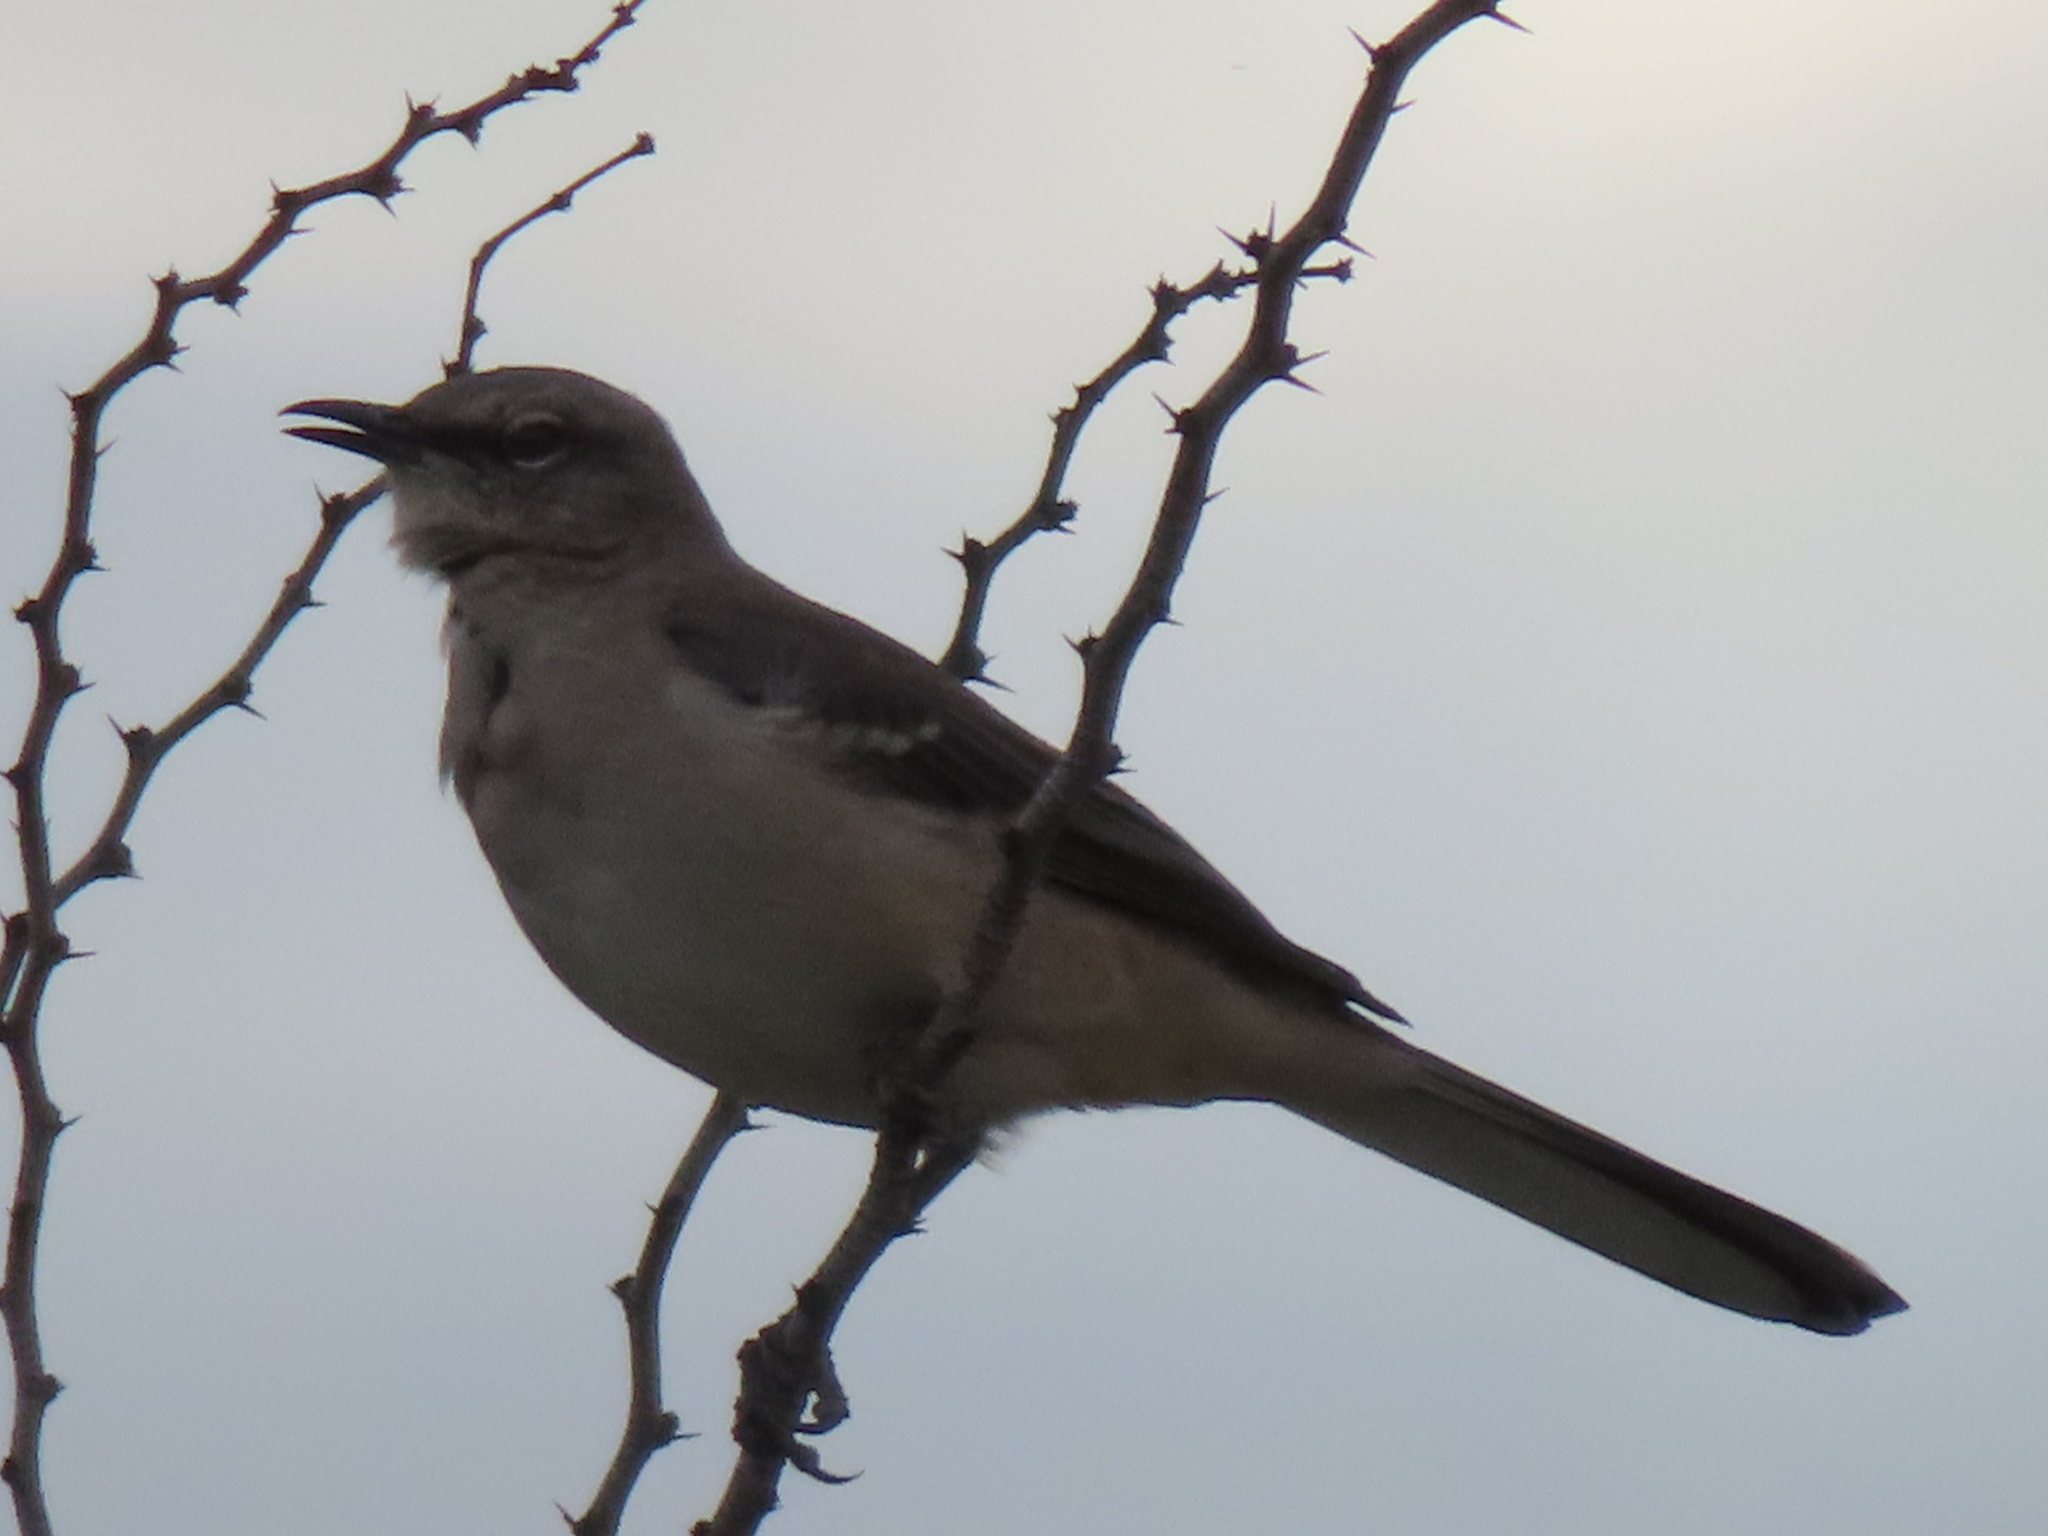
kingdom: Animalia
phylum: Chordata
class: Aves
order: Passeriformes
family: Mimidae
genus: Mimus
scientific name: Mimus polyglottos
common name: Northern mockingbird
